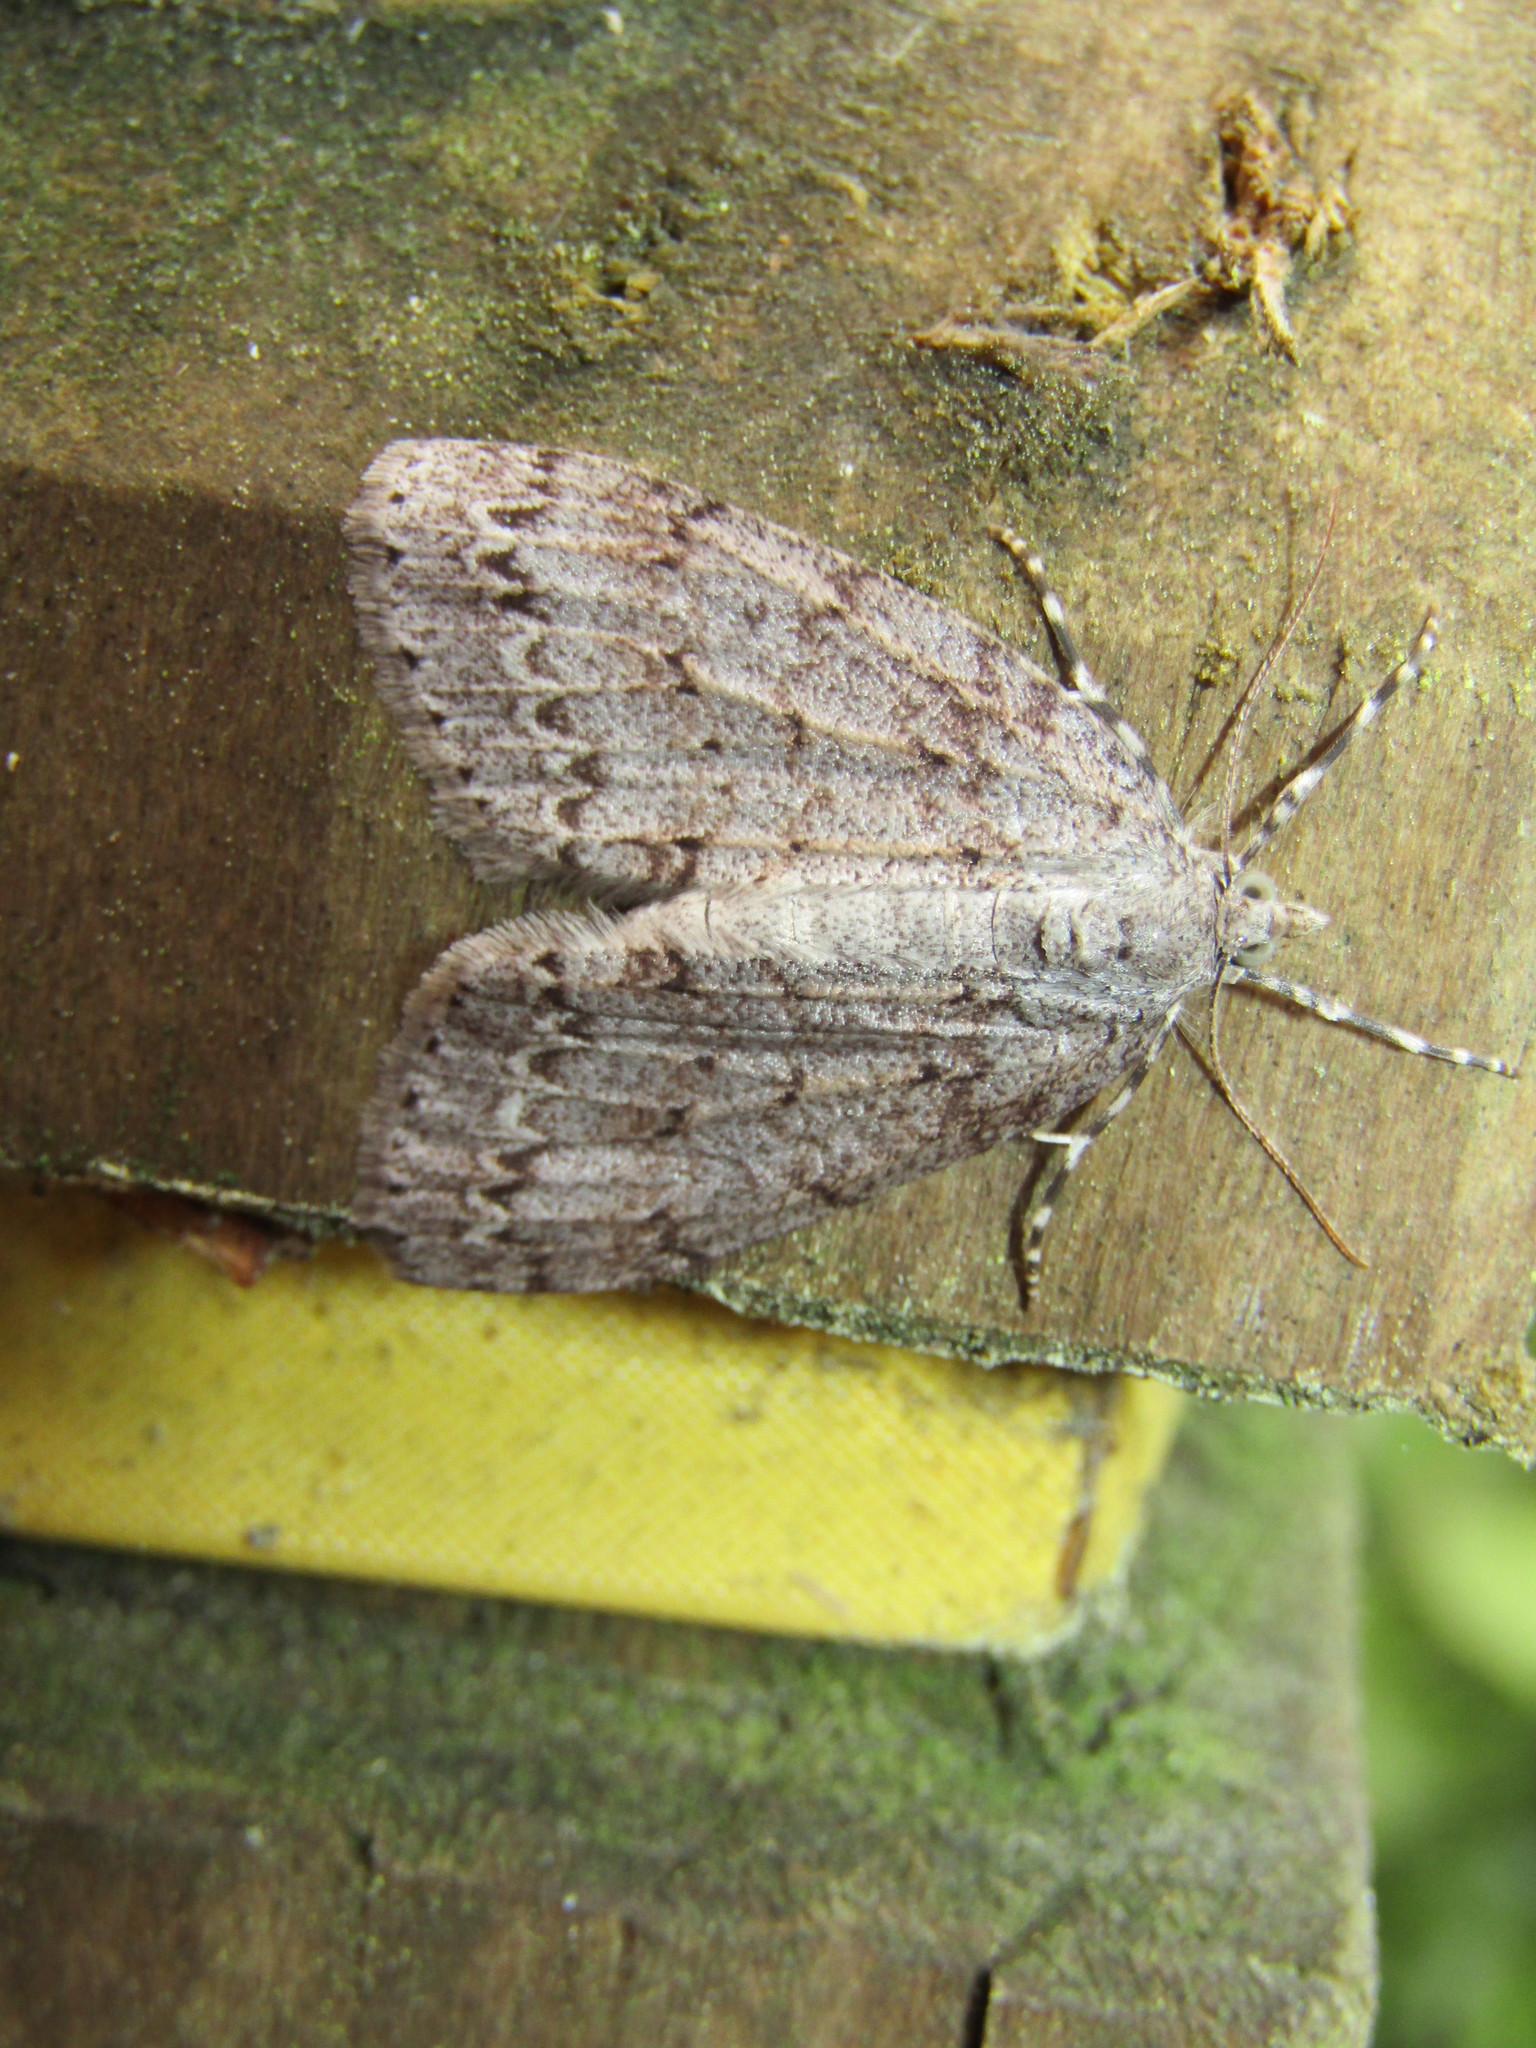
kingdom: Animalia
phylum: Arthropoda
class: Insecta
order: Lepidoptera
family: Geometridae
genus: Pseudocoremia
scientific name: Pseudocoremia fenerata
